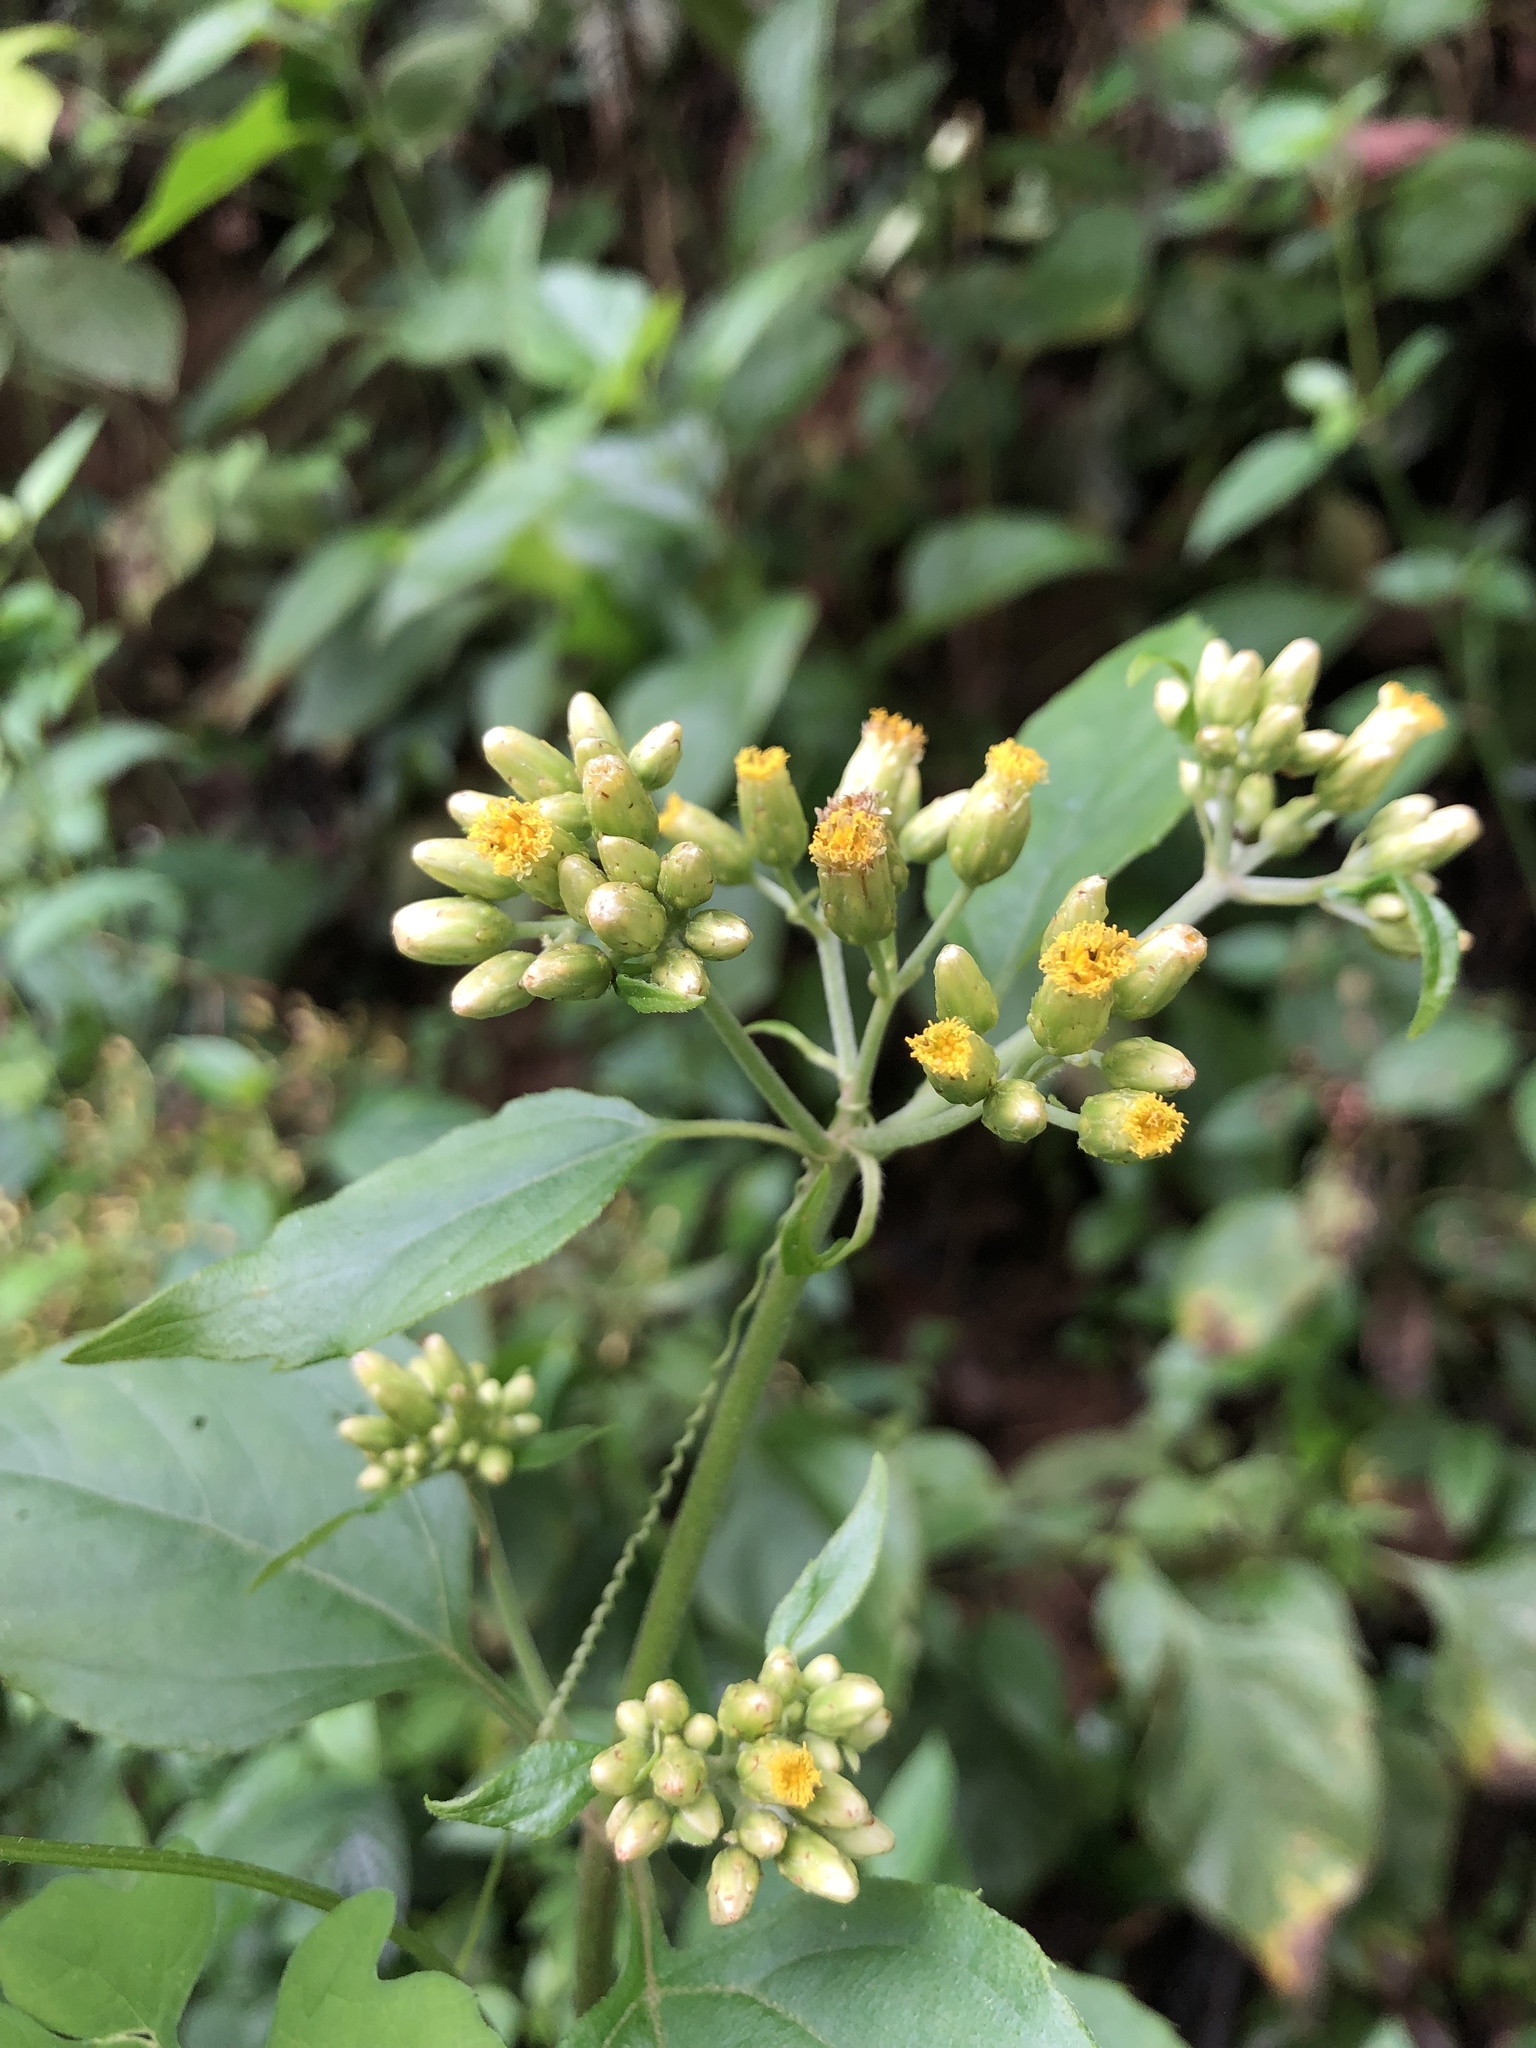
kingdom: Plantae
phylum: Tracheophyta
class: Magnoliopsida
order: Asterales
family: Asteraceae
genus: Schistocarpha
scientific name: Schistocarpha eupatorioides
